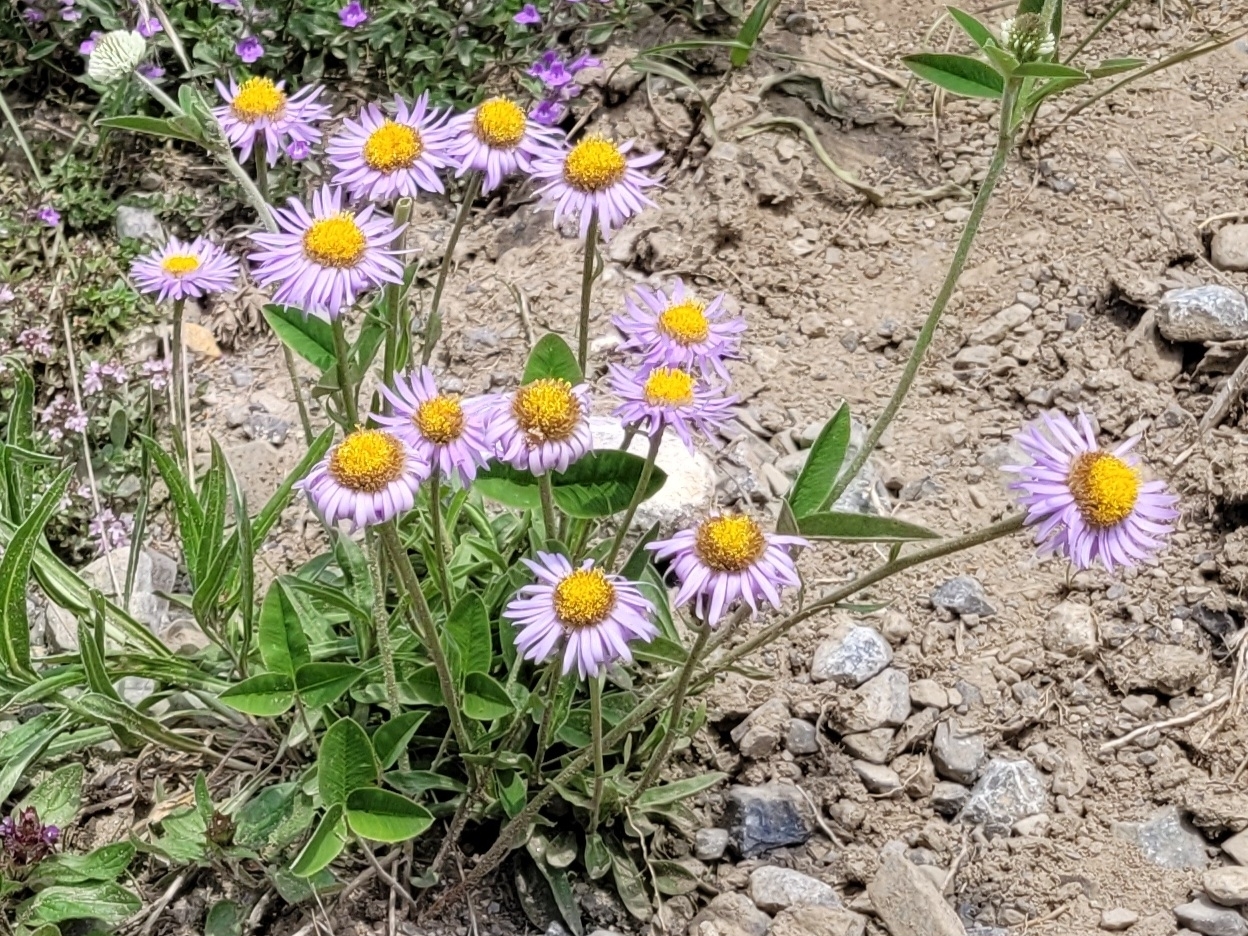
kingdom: Plantae
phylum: Tracheophyta
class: Magnoliopsida
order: Asterales
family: Asteraceae
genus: Aster
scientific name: Aster alpinus
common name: Alpine aster
